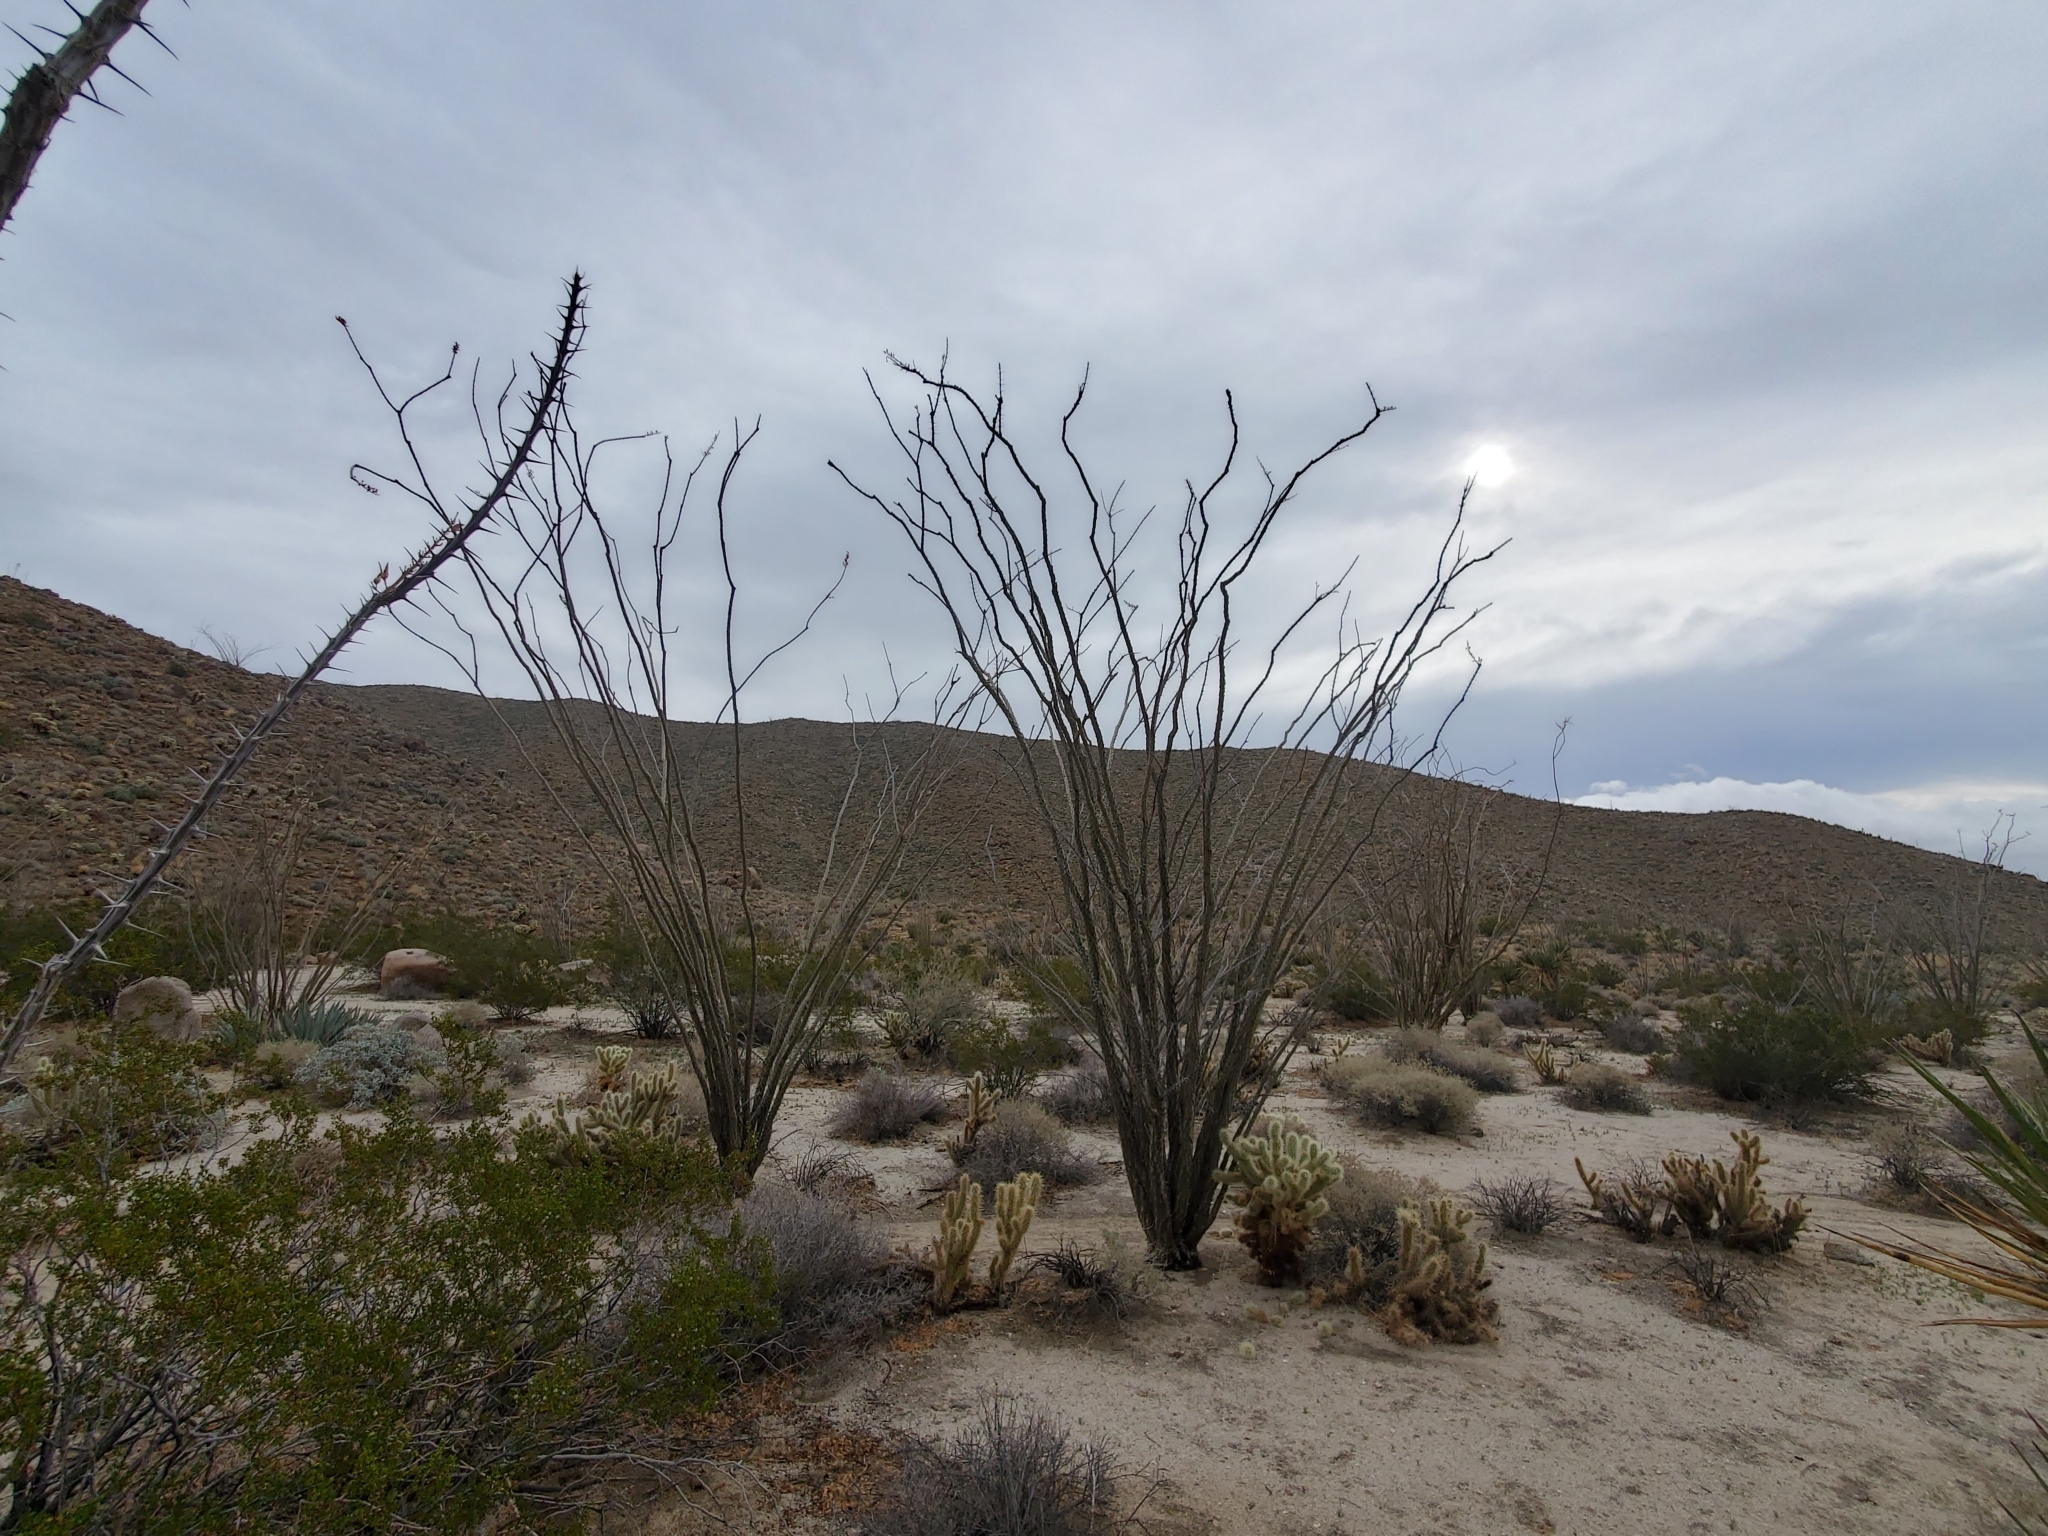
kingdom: Plantae
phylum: Tracheophyta
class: Magnoliopsida
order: Ericales
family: Fouquieriaceae
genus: Fouquieria
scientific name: Fouquieria splendens
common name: Vine-cactus
